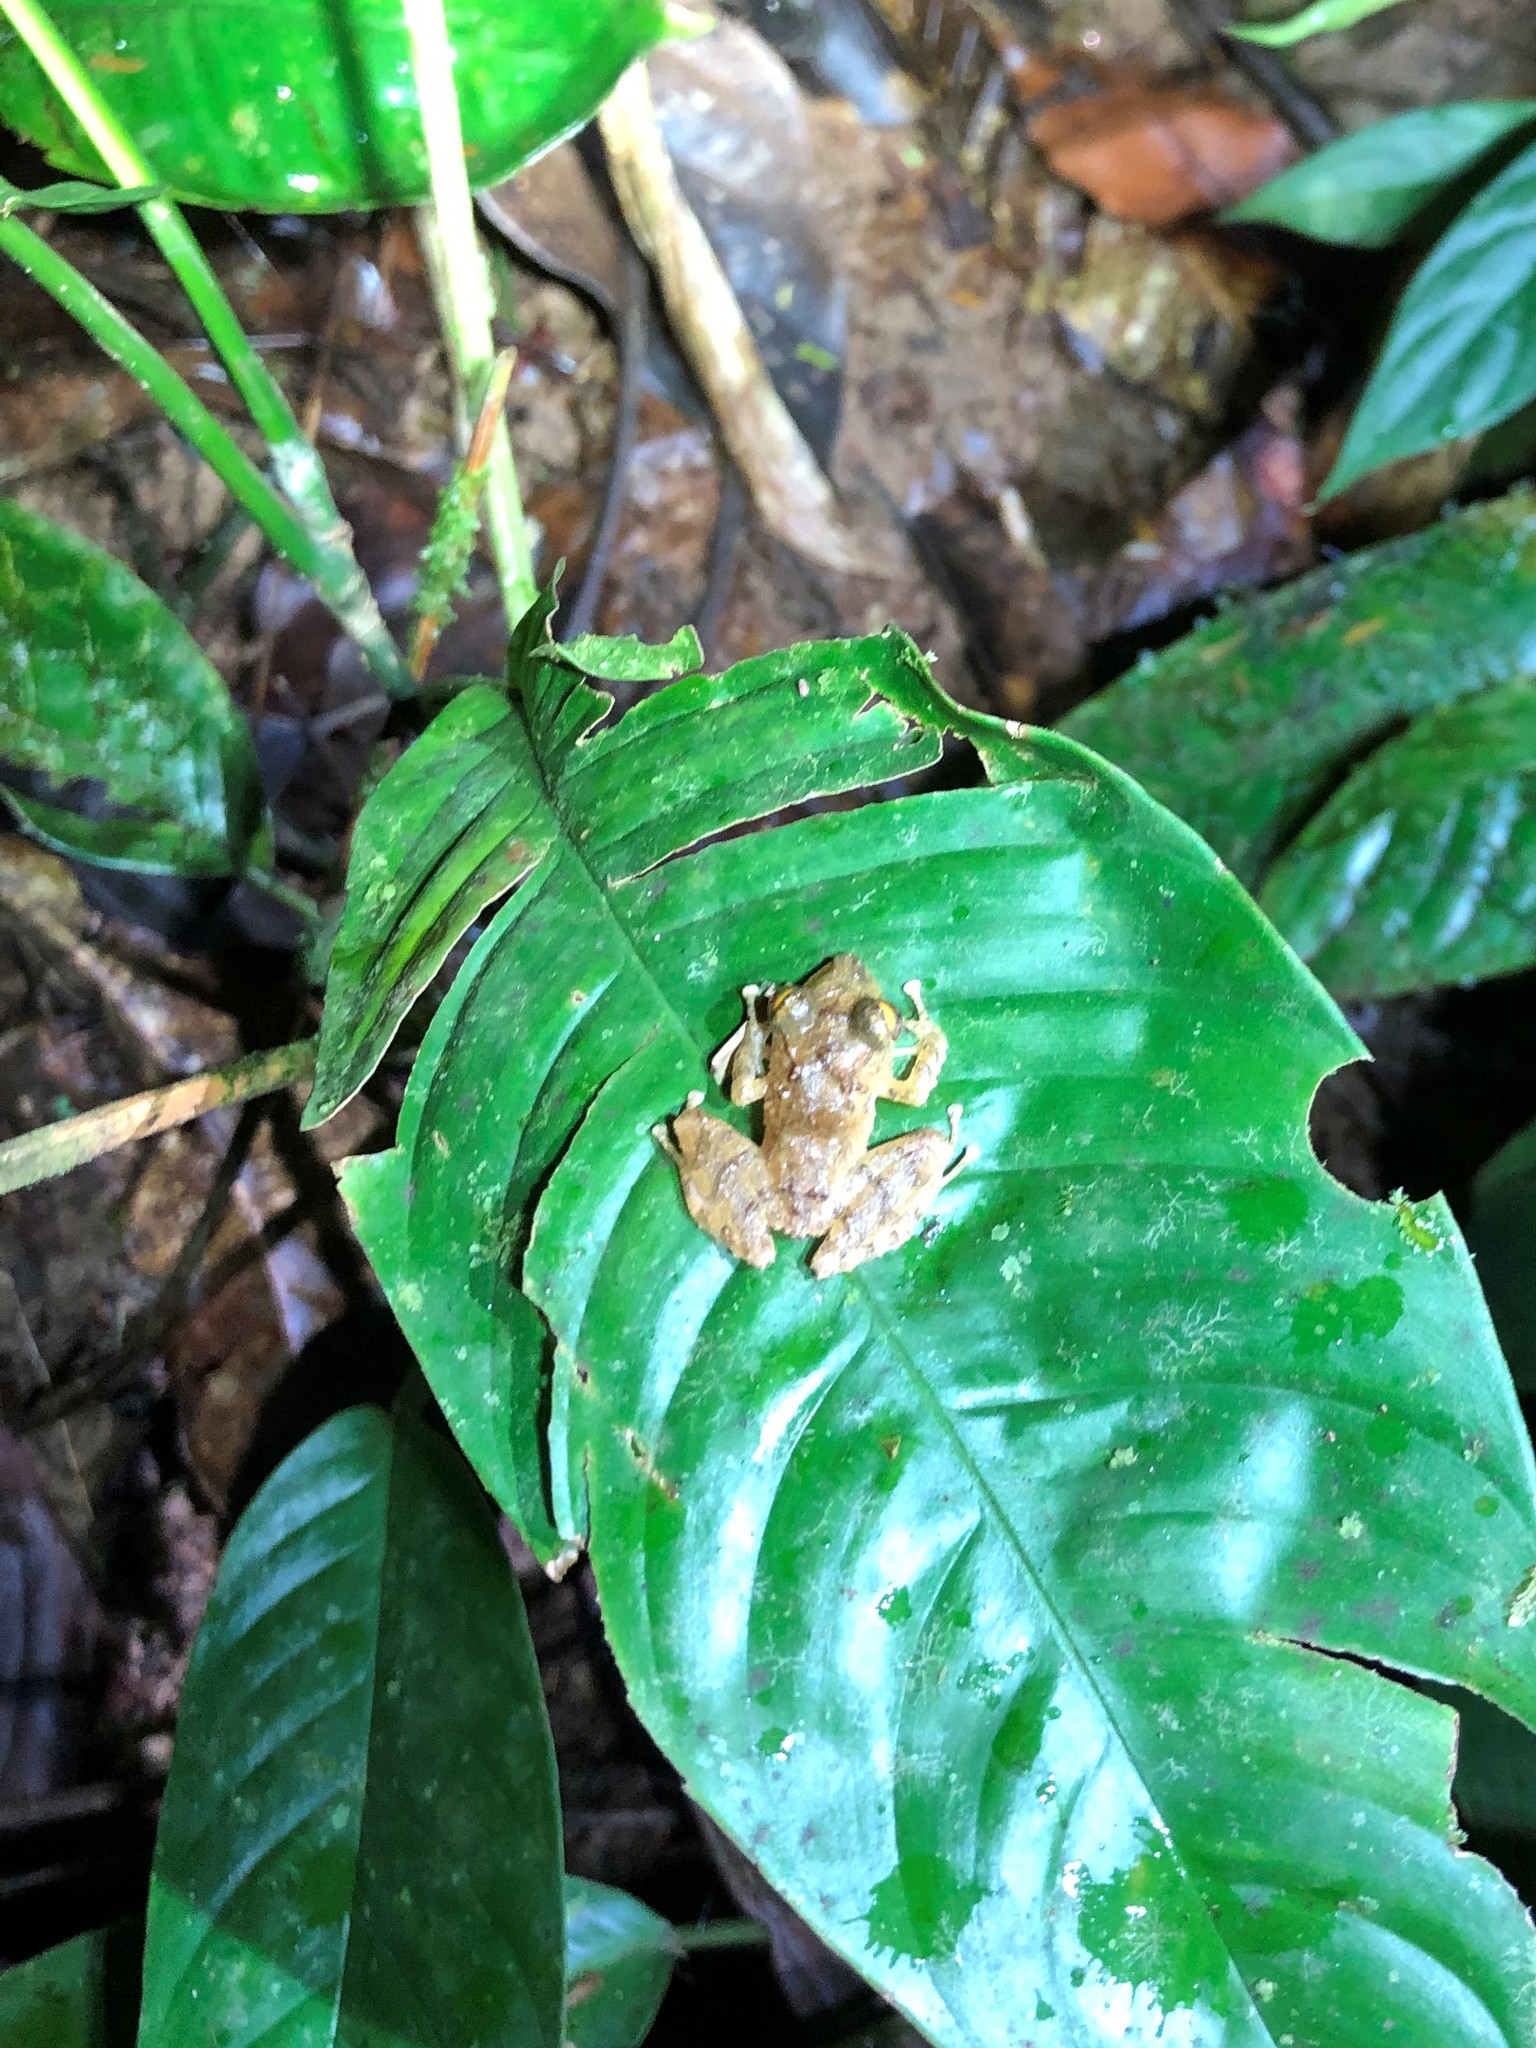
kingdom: Animalia
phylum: Chordata
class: Amphibia
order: Anura
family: Craugastoridae
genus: Pristimantis
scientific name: Pristimantis cruentus
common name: Chiriqui robber frog
